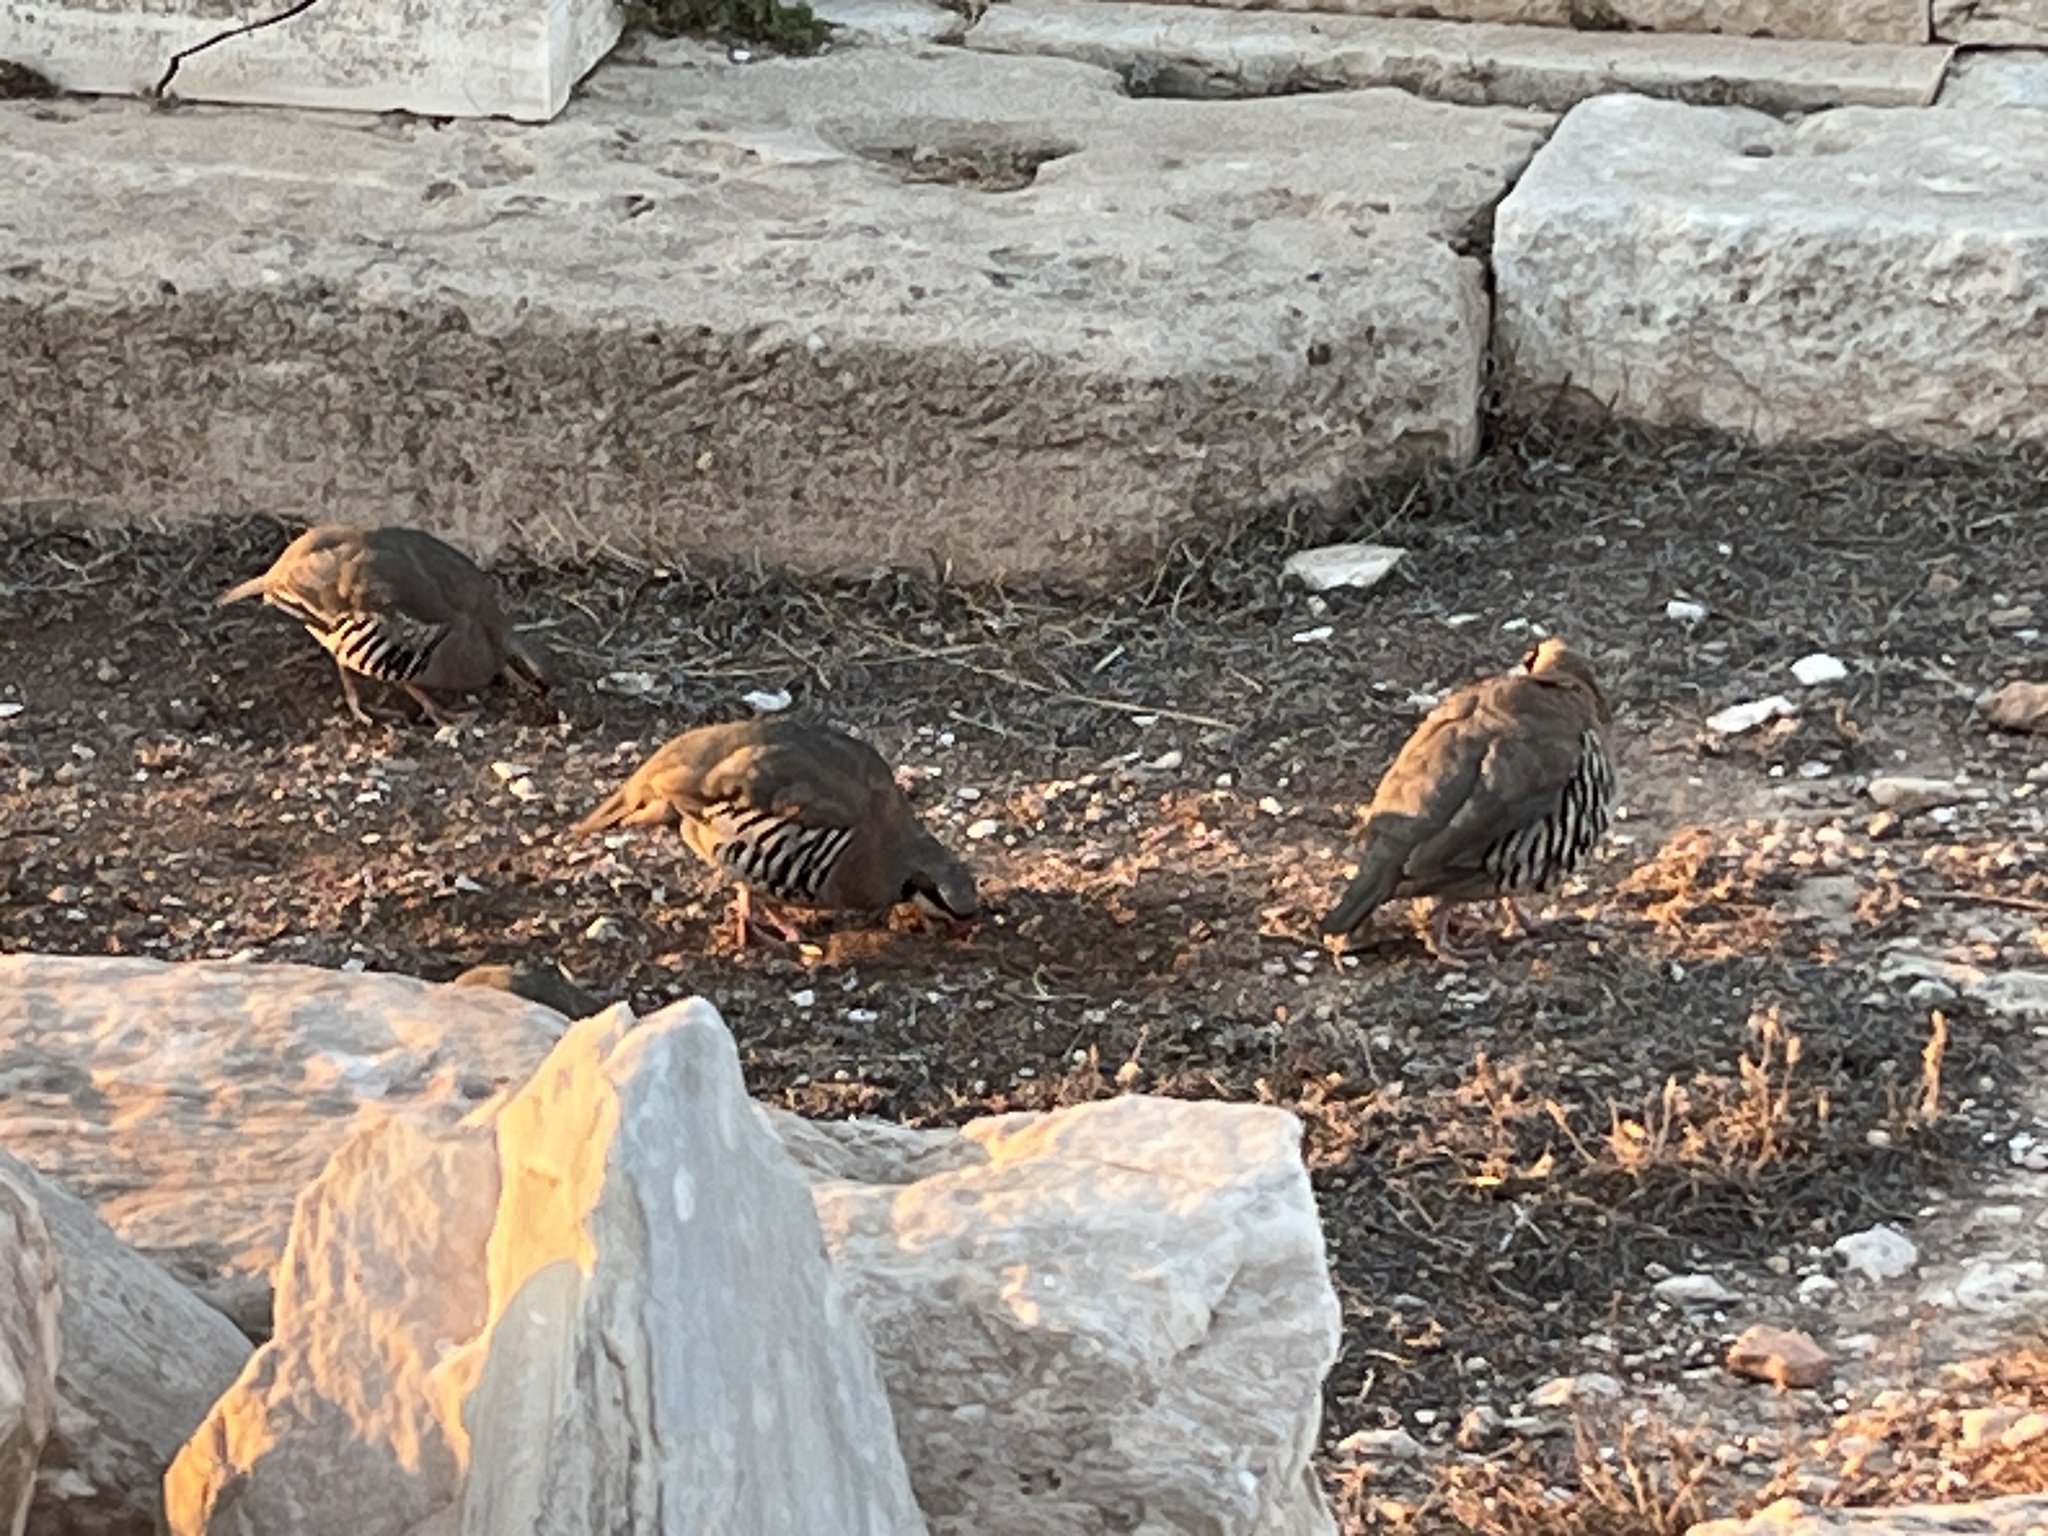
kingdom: Animalia
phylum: Chordata
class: Aves
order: Galliformes
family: Phasianidae
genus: Alectoris
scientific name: Alectoris chukar
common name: Chukar
